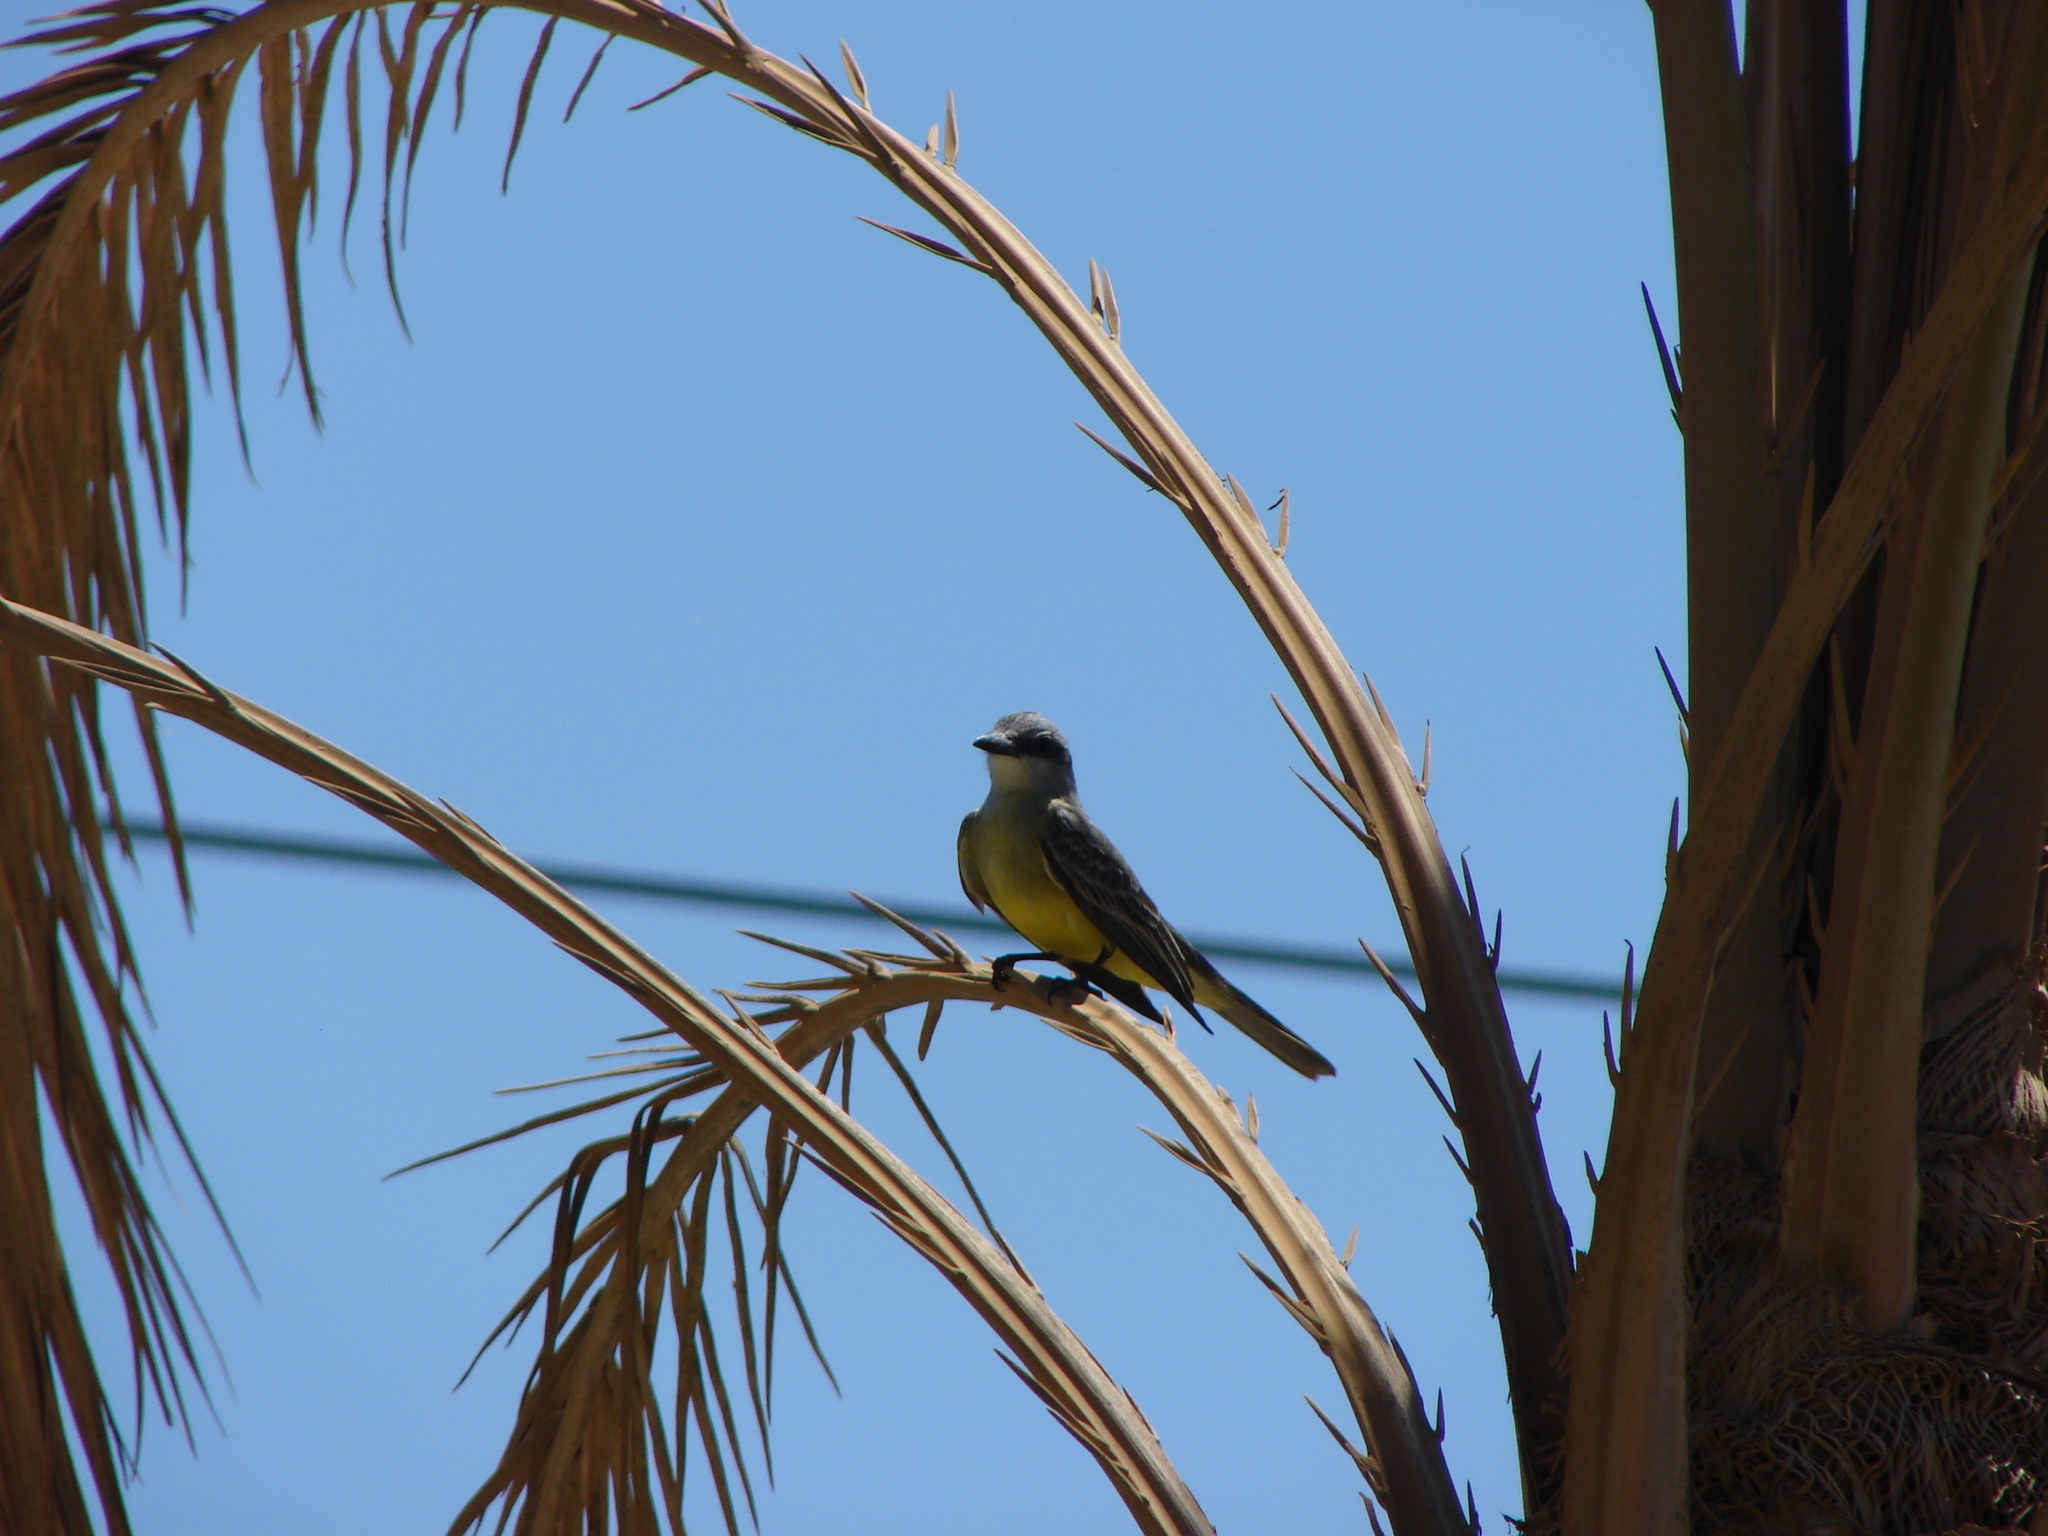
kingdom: Animalia
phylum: Chordata
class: Aves
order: Passeriformes
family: Tyrannidae
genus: Tyrannus
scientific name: Tyrannus melancholicus
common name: Tropical kingbird
